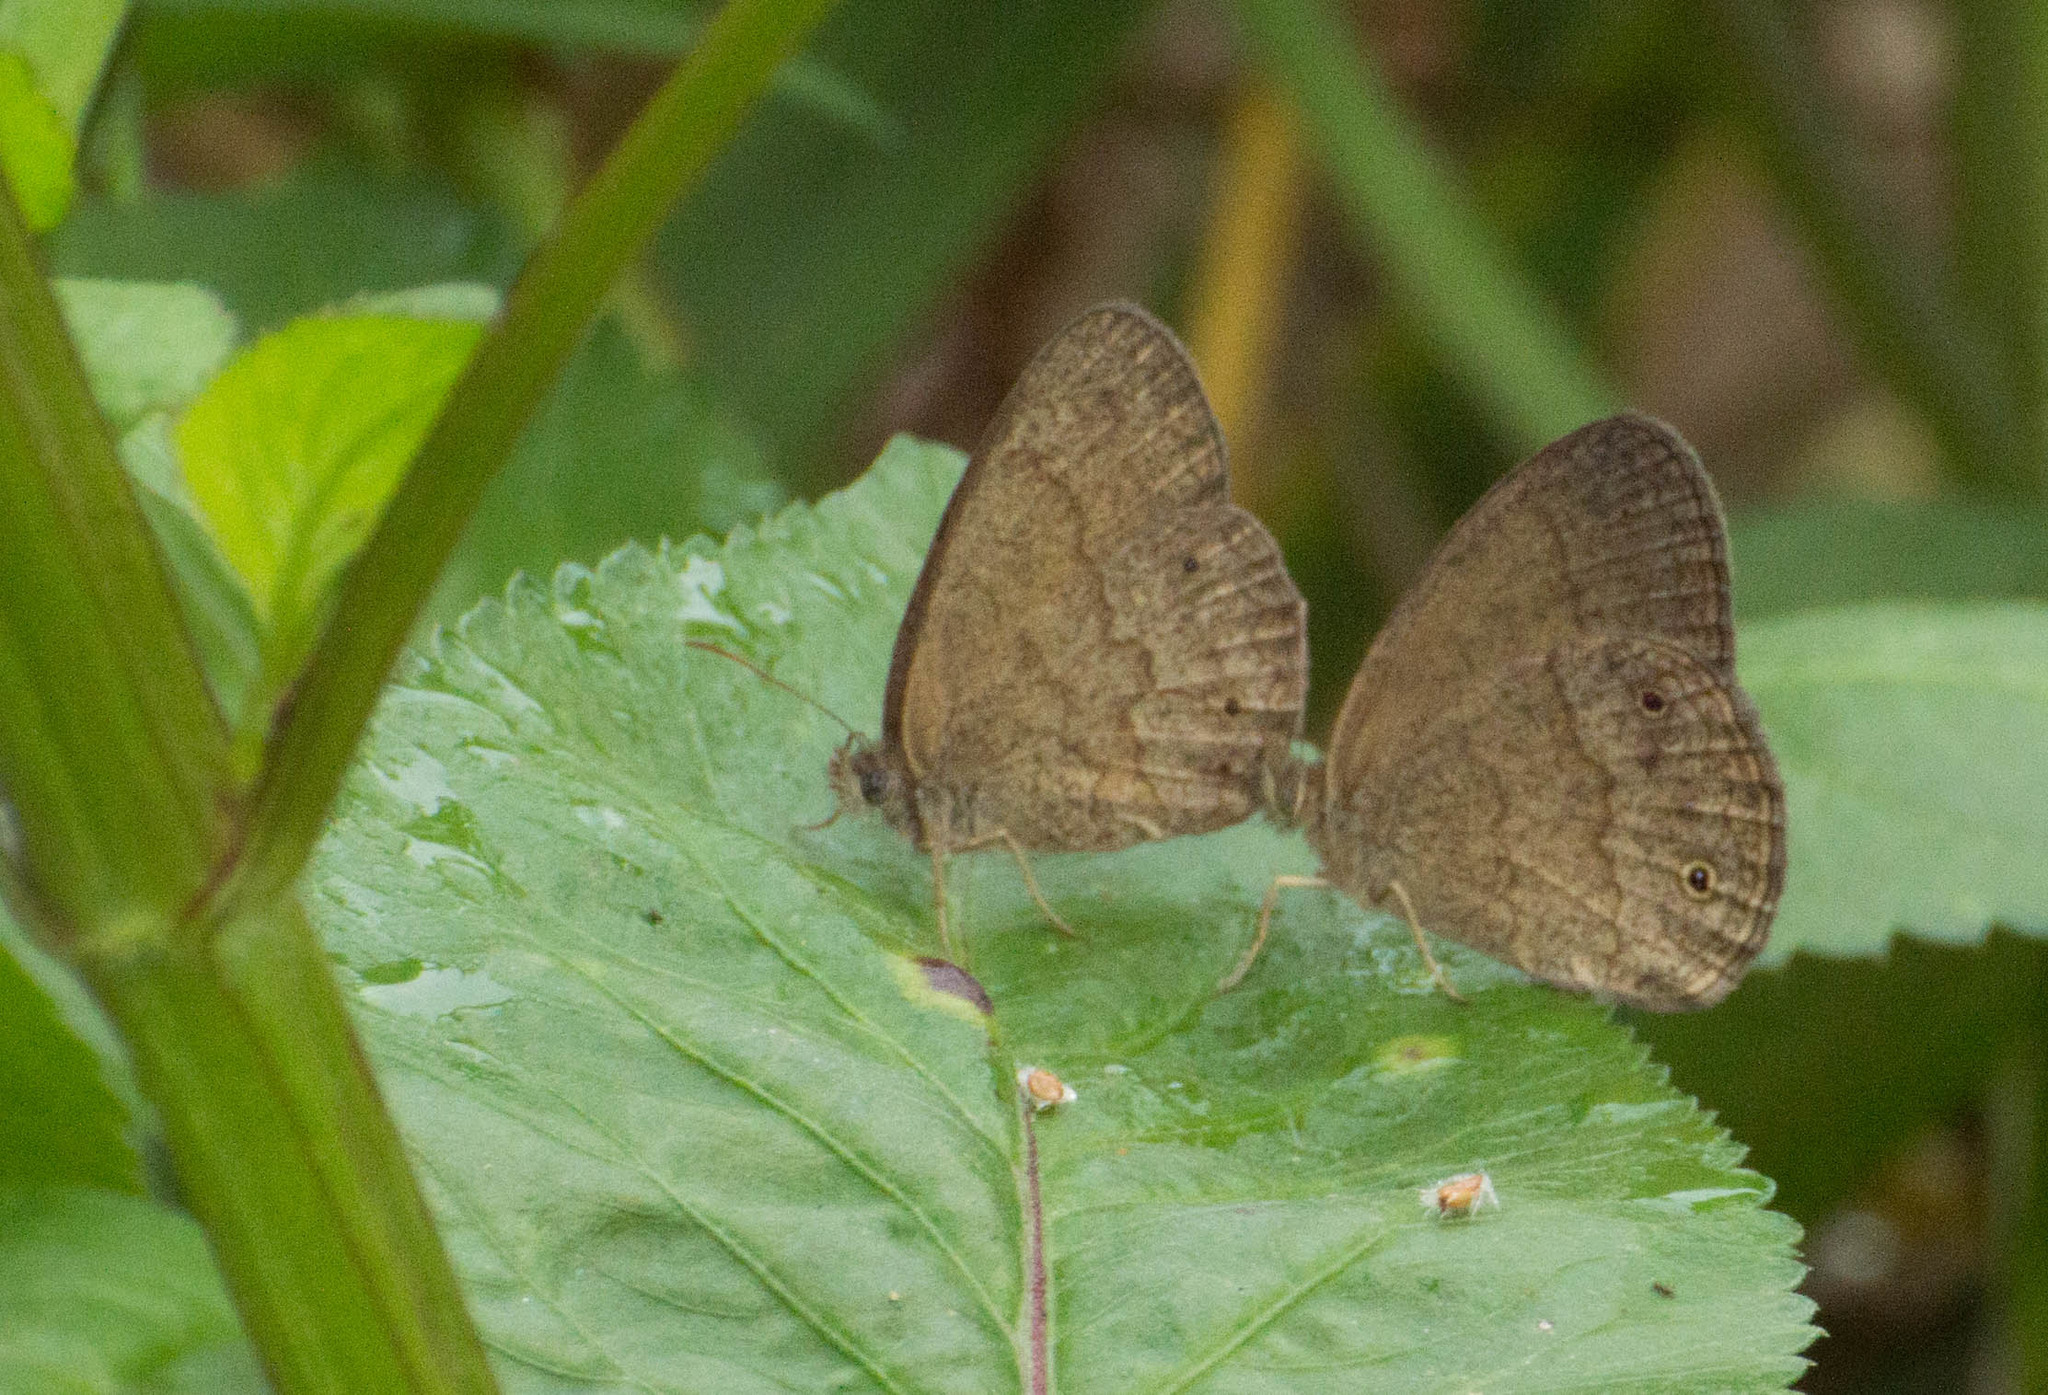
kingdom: Animalia
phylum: Arthropoda
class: Insecta
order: Lepidoptera
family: Nymphalidae
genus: Yphthimoides
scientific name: Yphthimoides celmis
